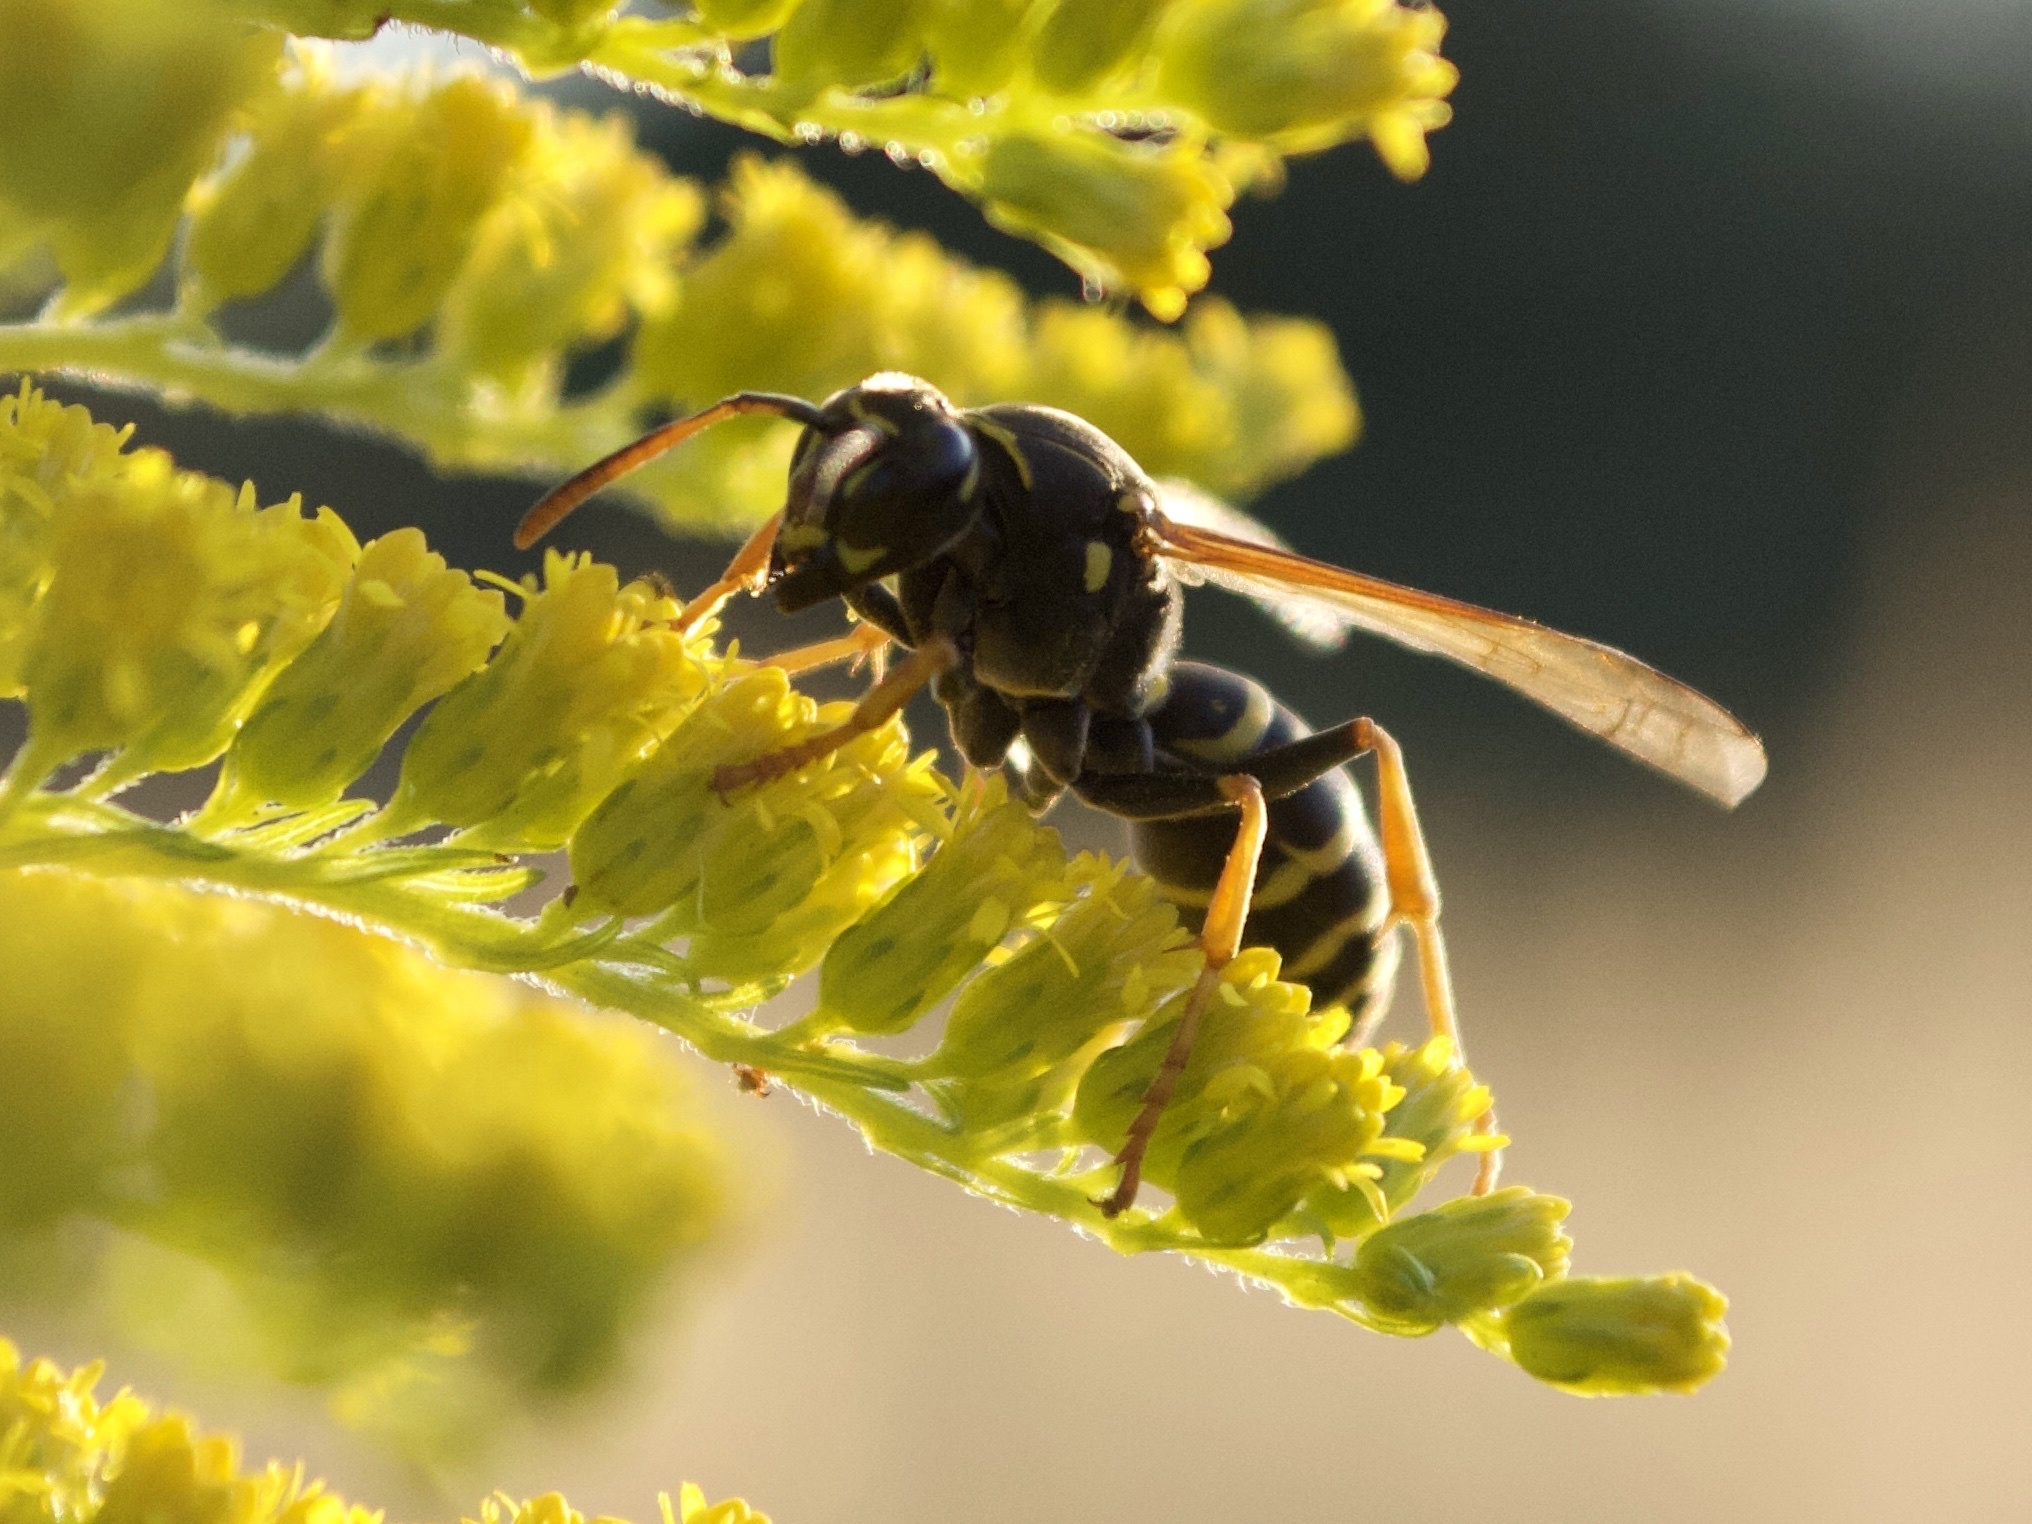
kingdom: Animalia
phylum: Arthropoda
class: Insecta
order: Hymenoptera
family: Eumenidae
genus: Polistes
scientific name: Polistes nimpha
